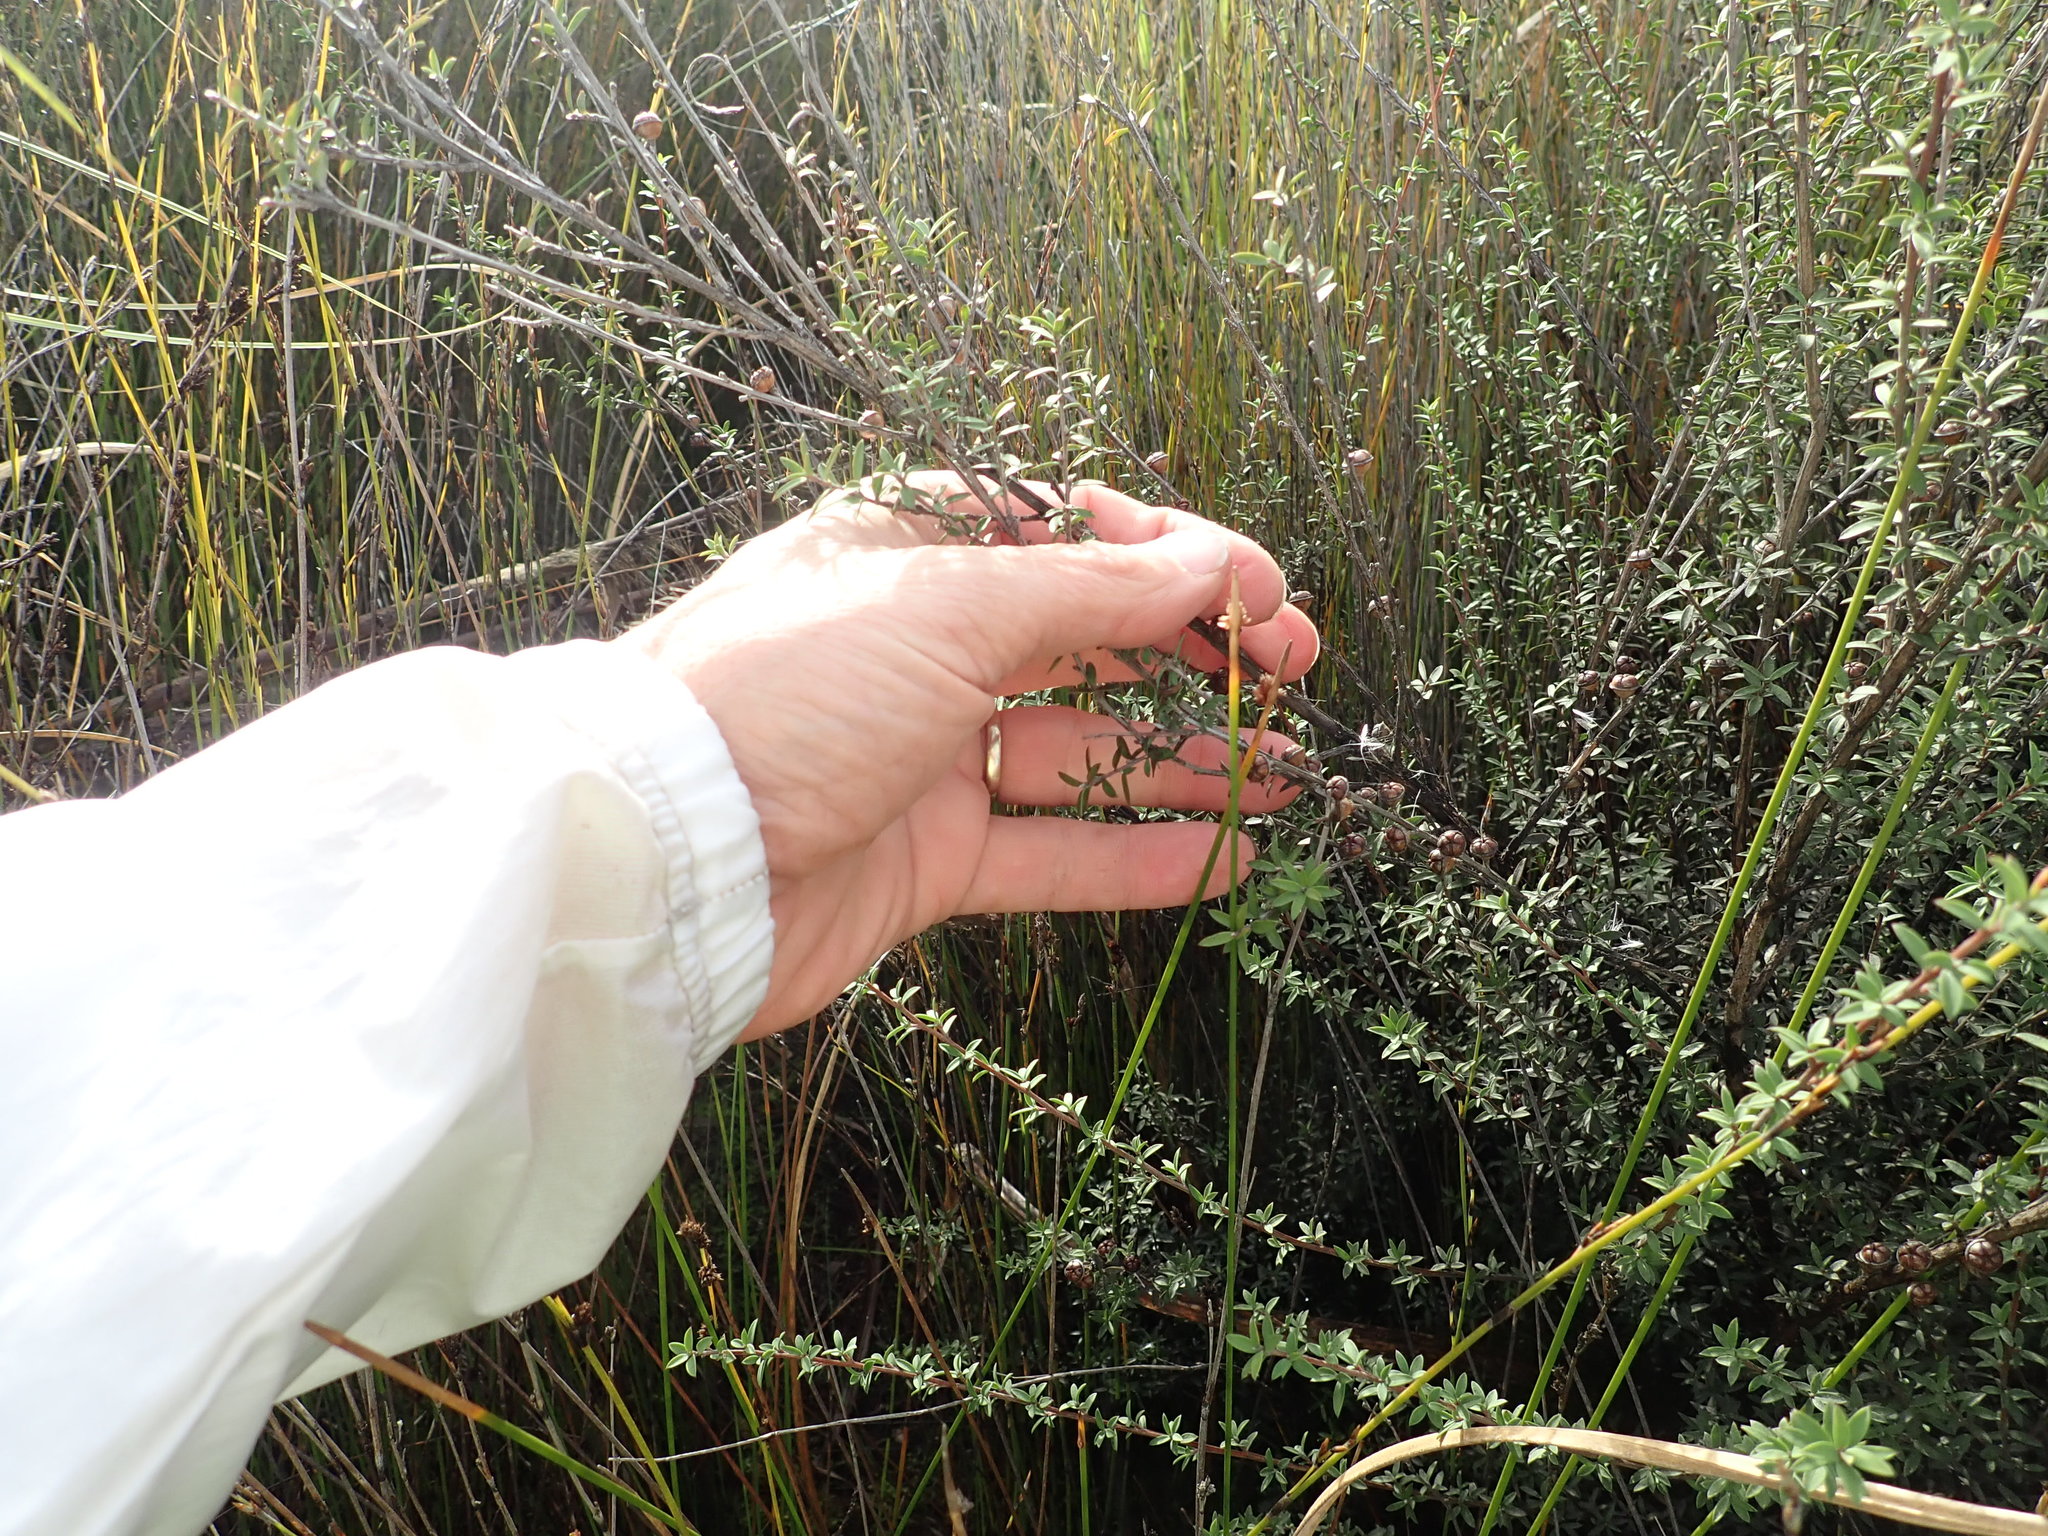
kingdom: Plantae
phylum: Tracheophyta
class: Magnoliopsida
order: Myrtales
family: Myrtaceae
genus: Leptospermum
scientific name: Leptospermum scoparium
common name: Broom tea-tree
